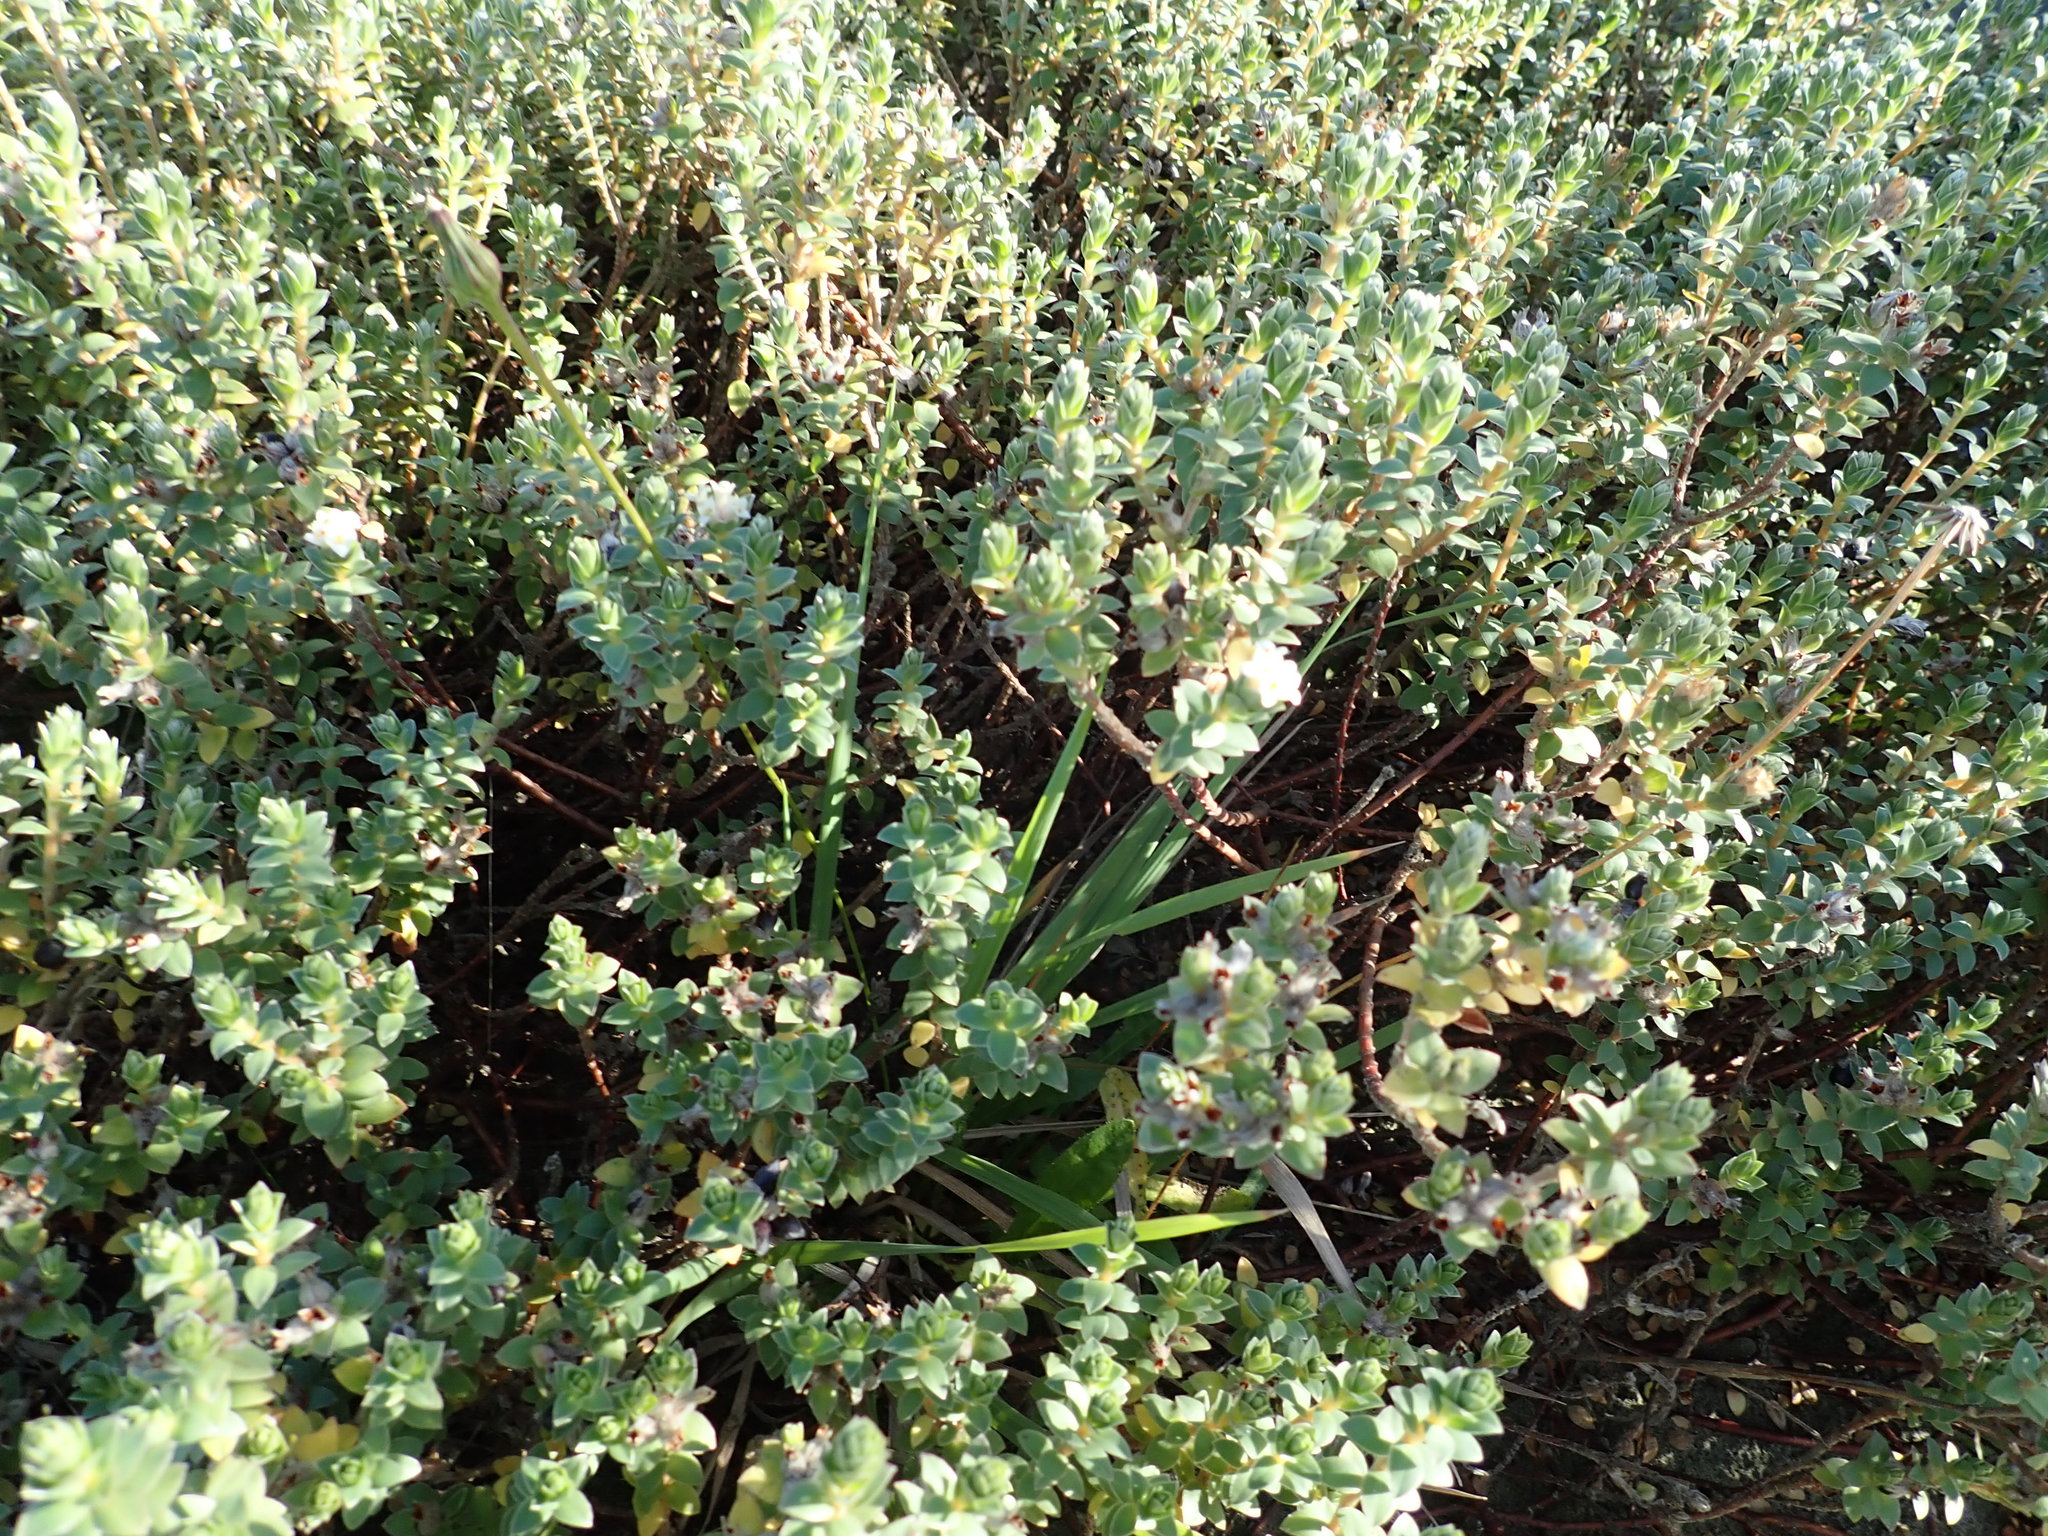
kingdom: Plantae
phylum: Tracheophyta
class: Magnoliopsida
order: Malvales
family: Thymelaeaceae
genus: Pimelea
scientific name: Pimelea villosa
